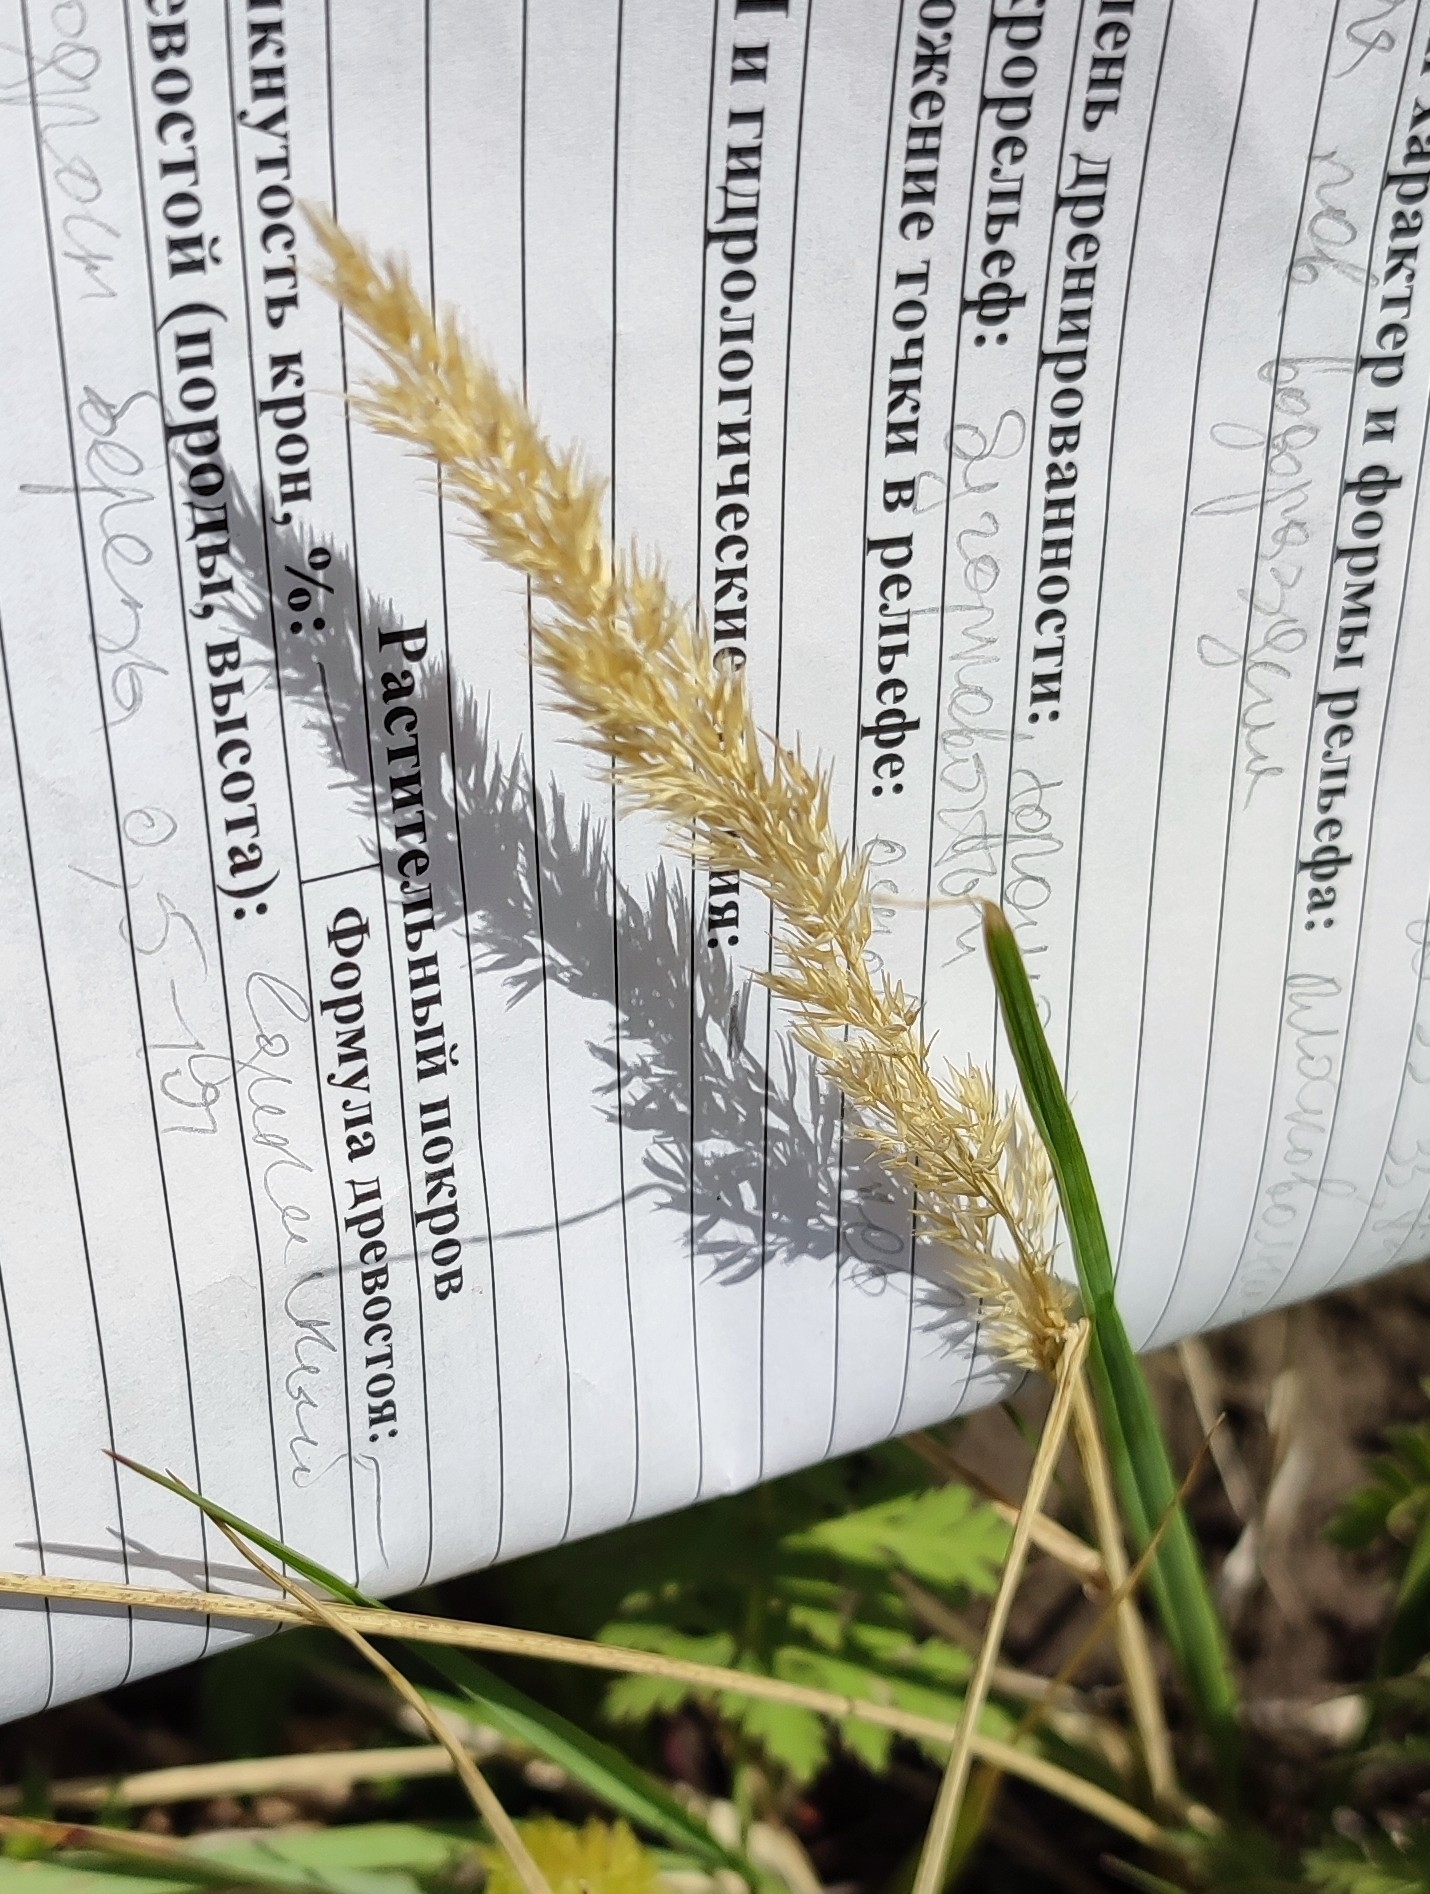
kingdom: Plantae
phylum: Tracheophyta
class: Liliopsida
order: Poales
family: Poaceae
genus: Calamagrostis
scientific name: Calamagrostis epigejos
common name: Wood small-reed
